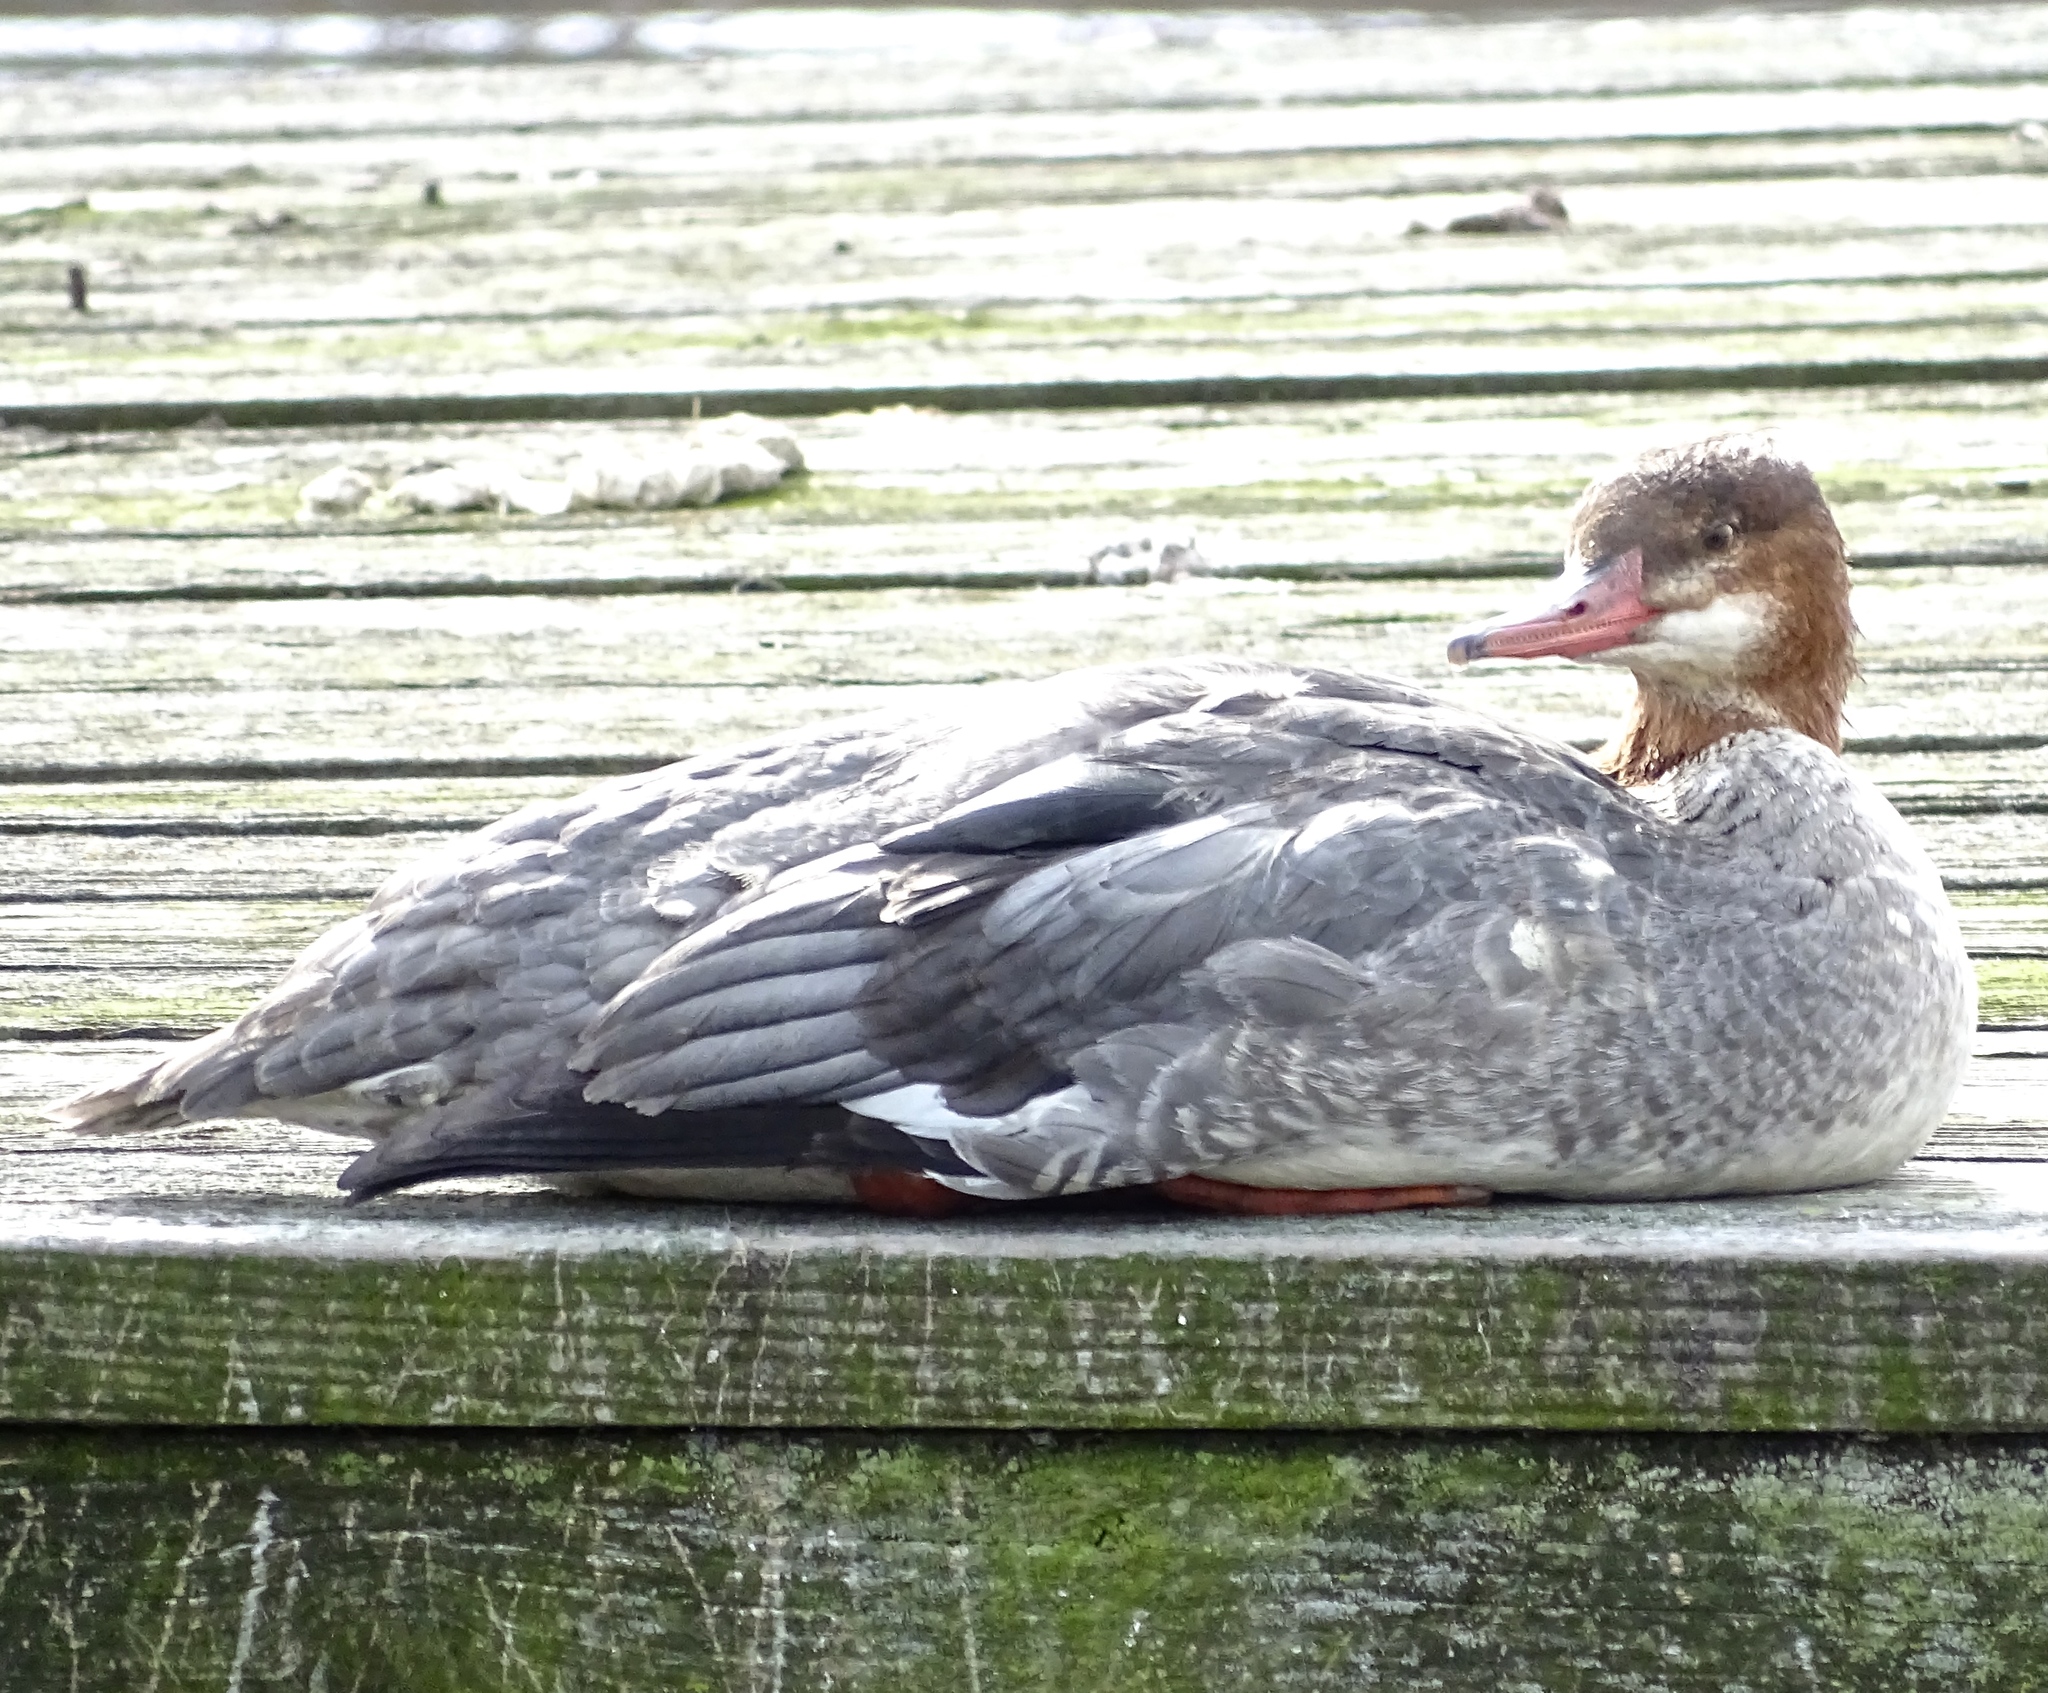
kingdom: Animalia
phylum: Chordata
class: Aves
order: Anseriformes
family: Anatidae
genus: Mergus
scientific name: Mergus merganser
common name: Common merganser
